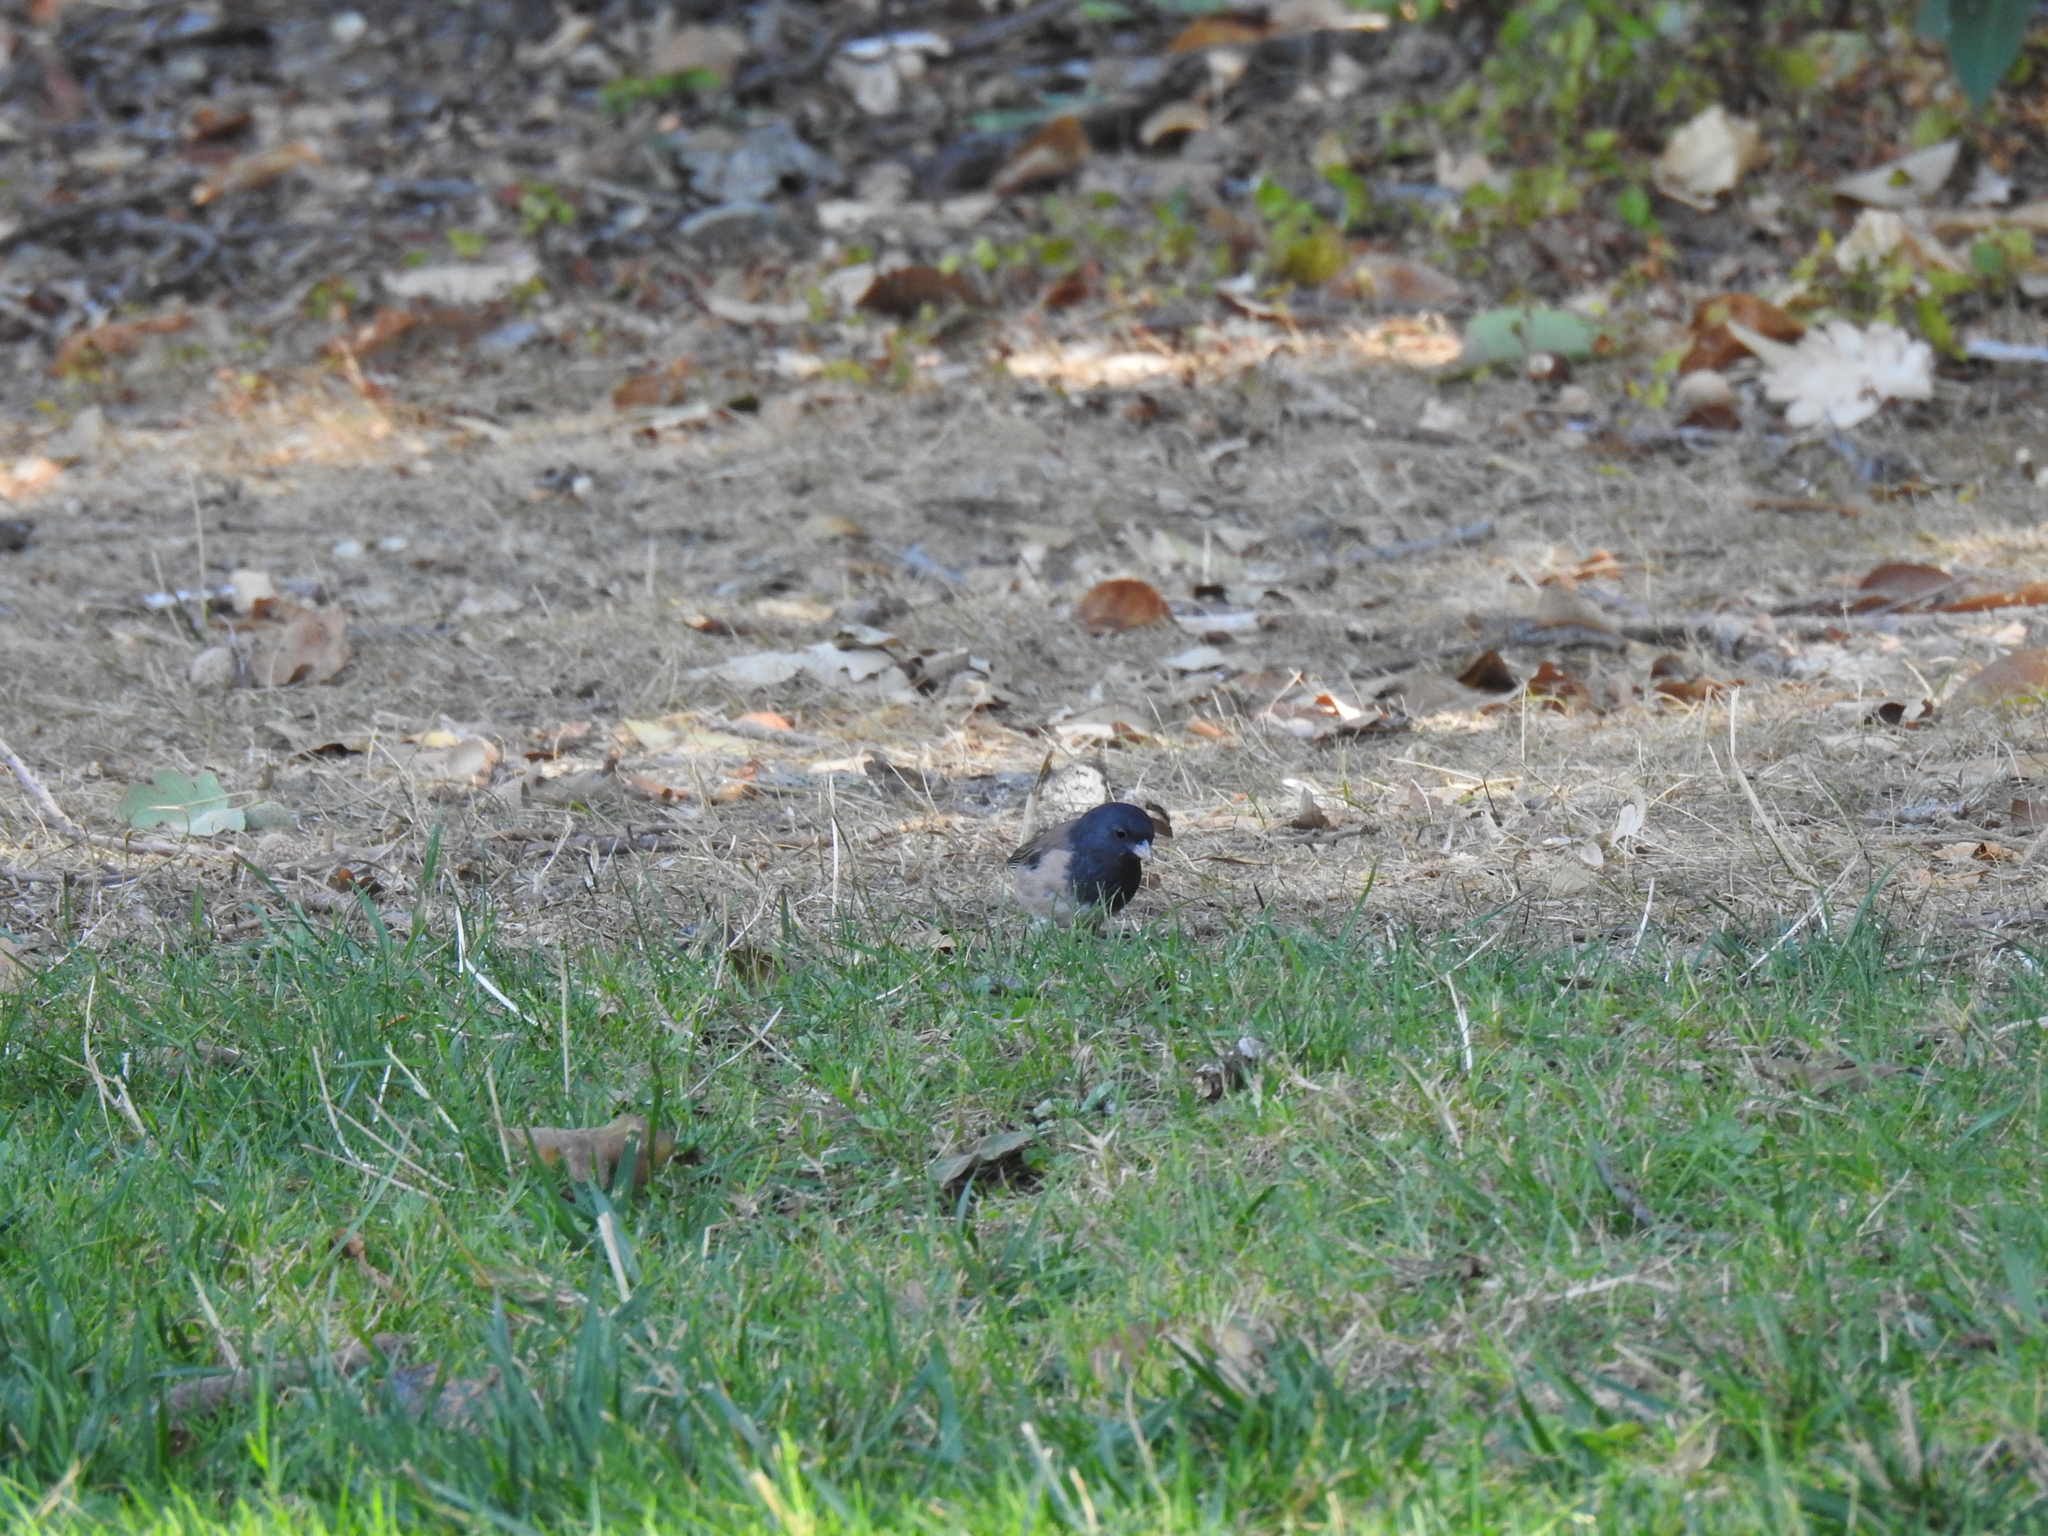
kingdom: Animalia
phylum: Chordata
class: Aves
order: Passeriformes
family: Passerellidae
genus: Junco
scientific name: Junco hyemalis
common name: Dark-eyed junco
